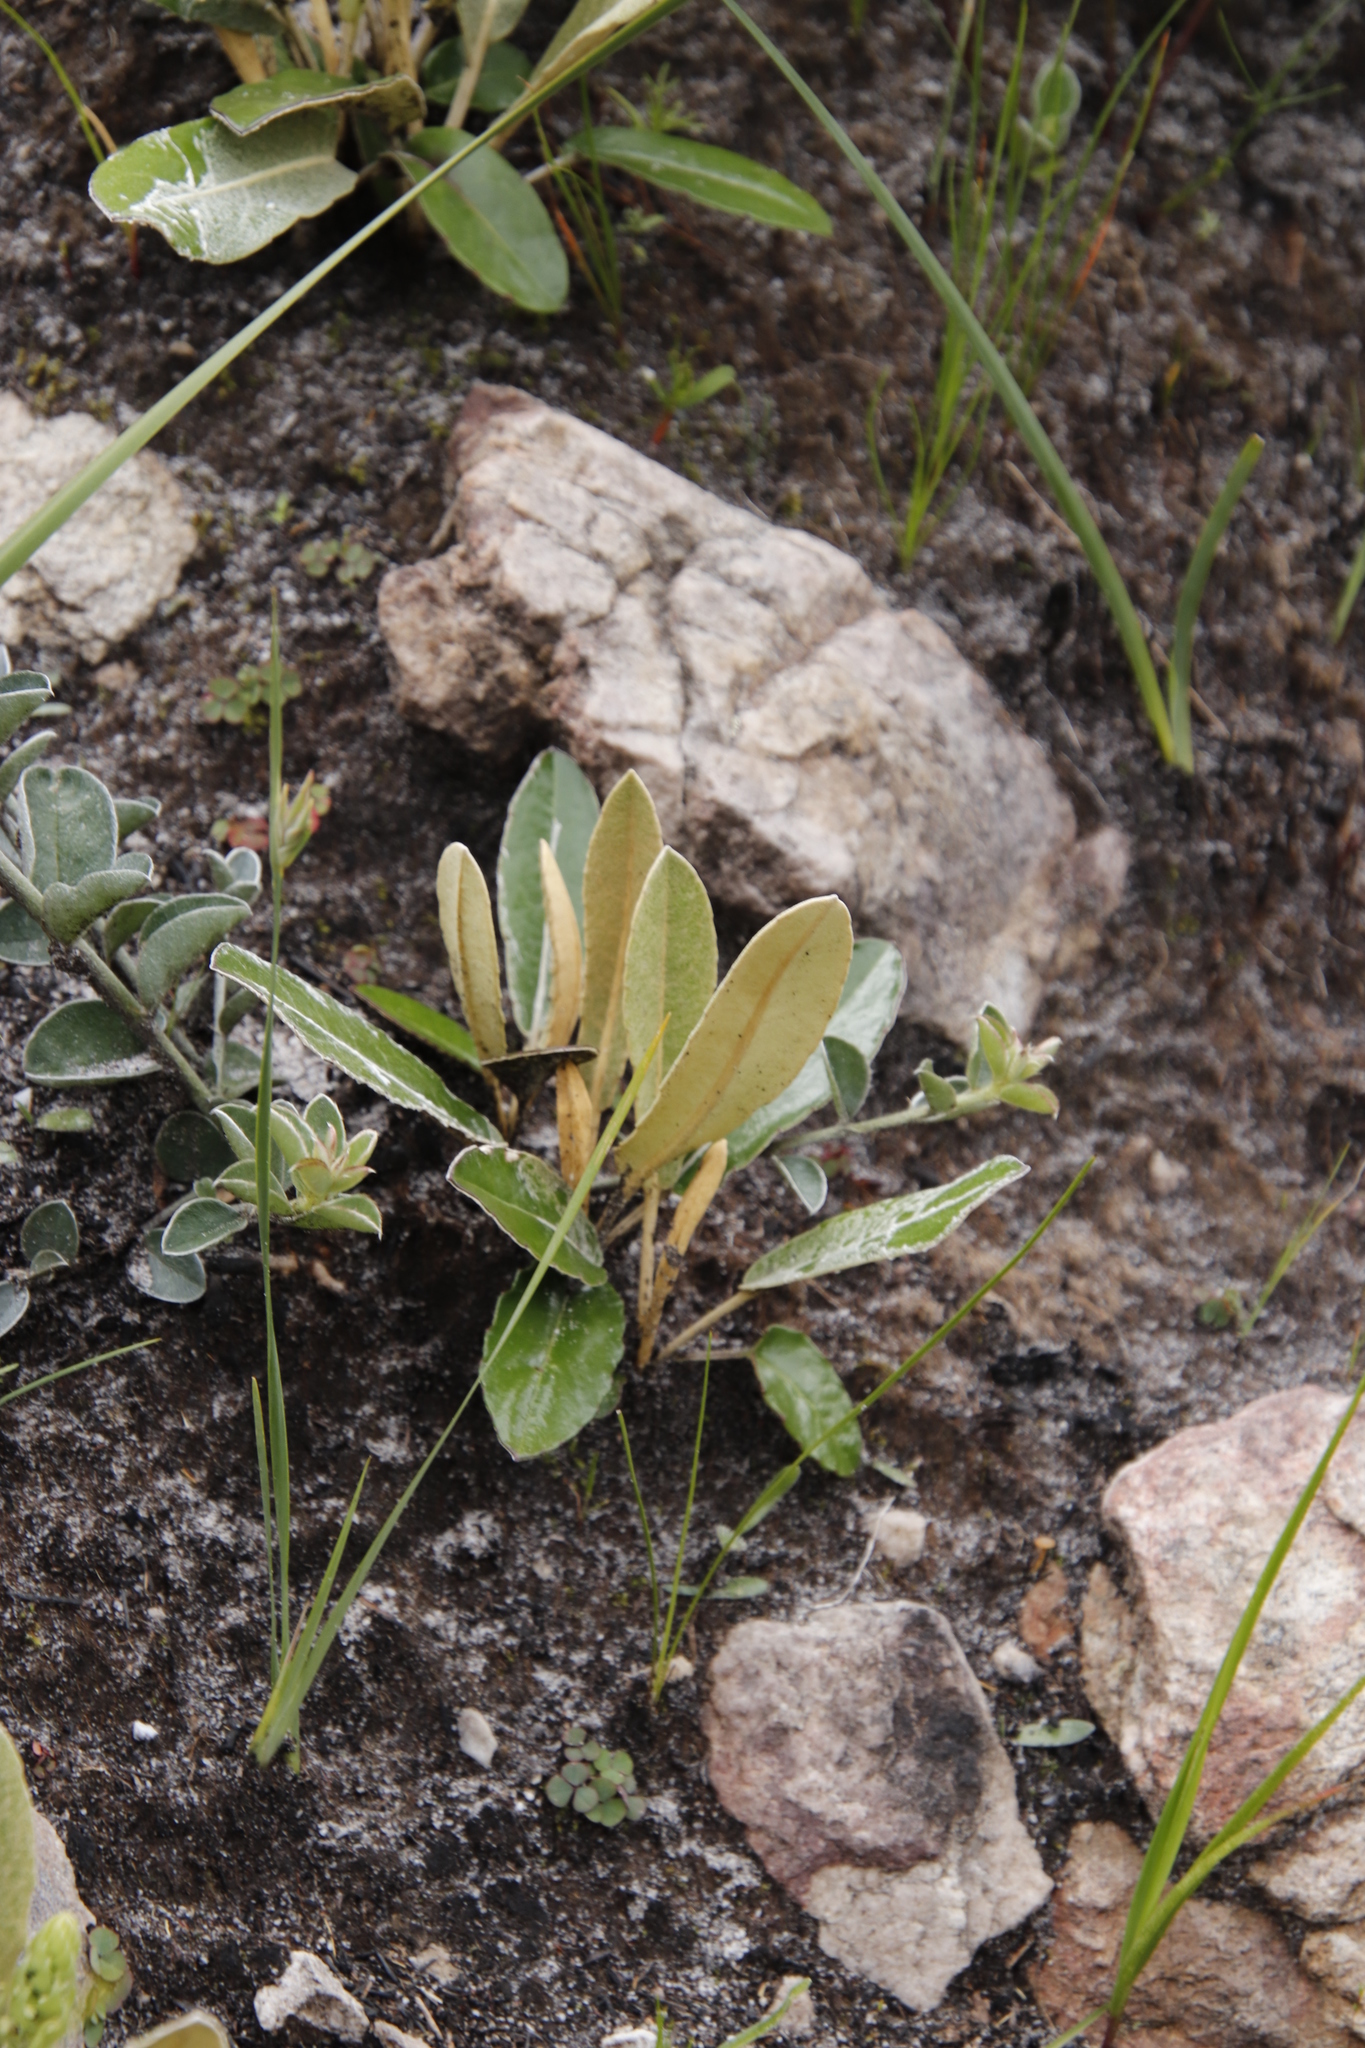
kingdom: Plantae
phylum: Tracheophyta
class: Magnoliopsida
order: Asterales
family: Asteraceae
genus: Gerbera
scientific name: Gerbera tomentosa
